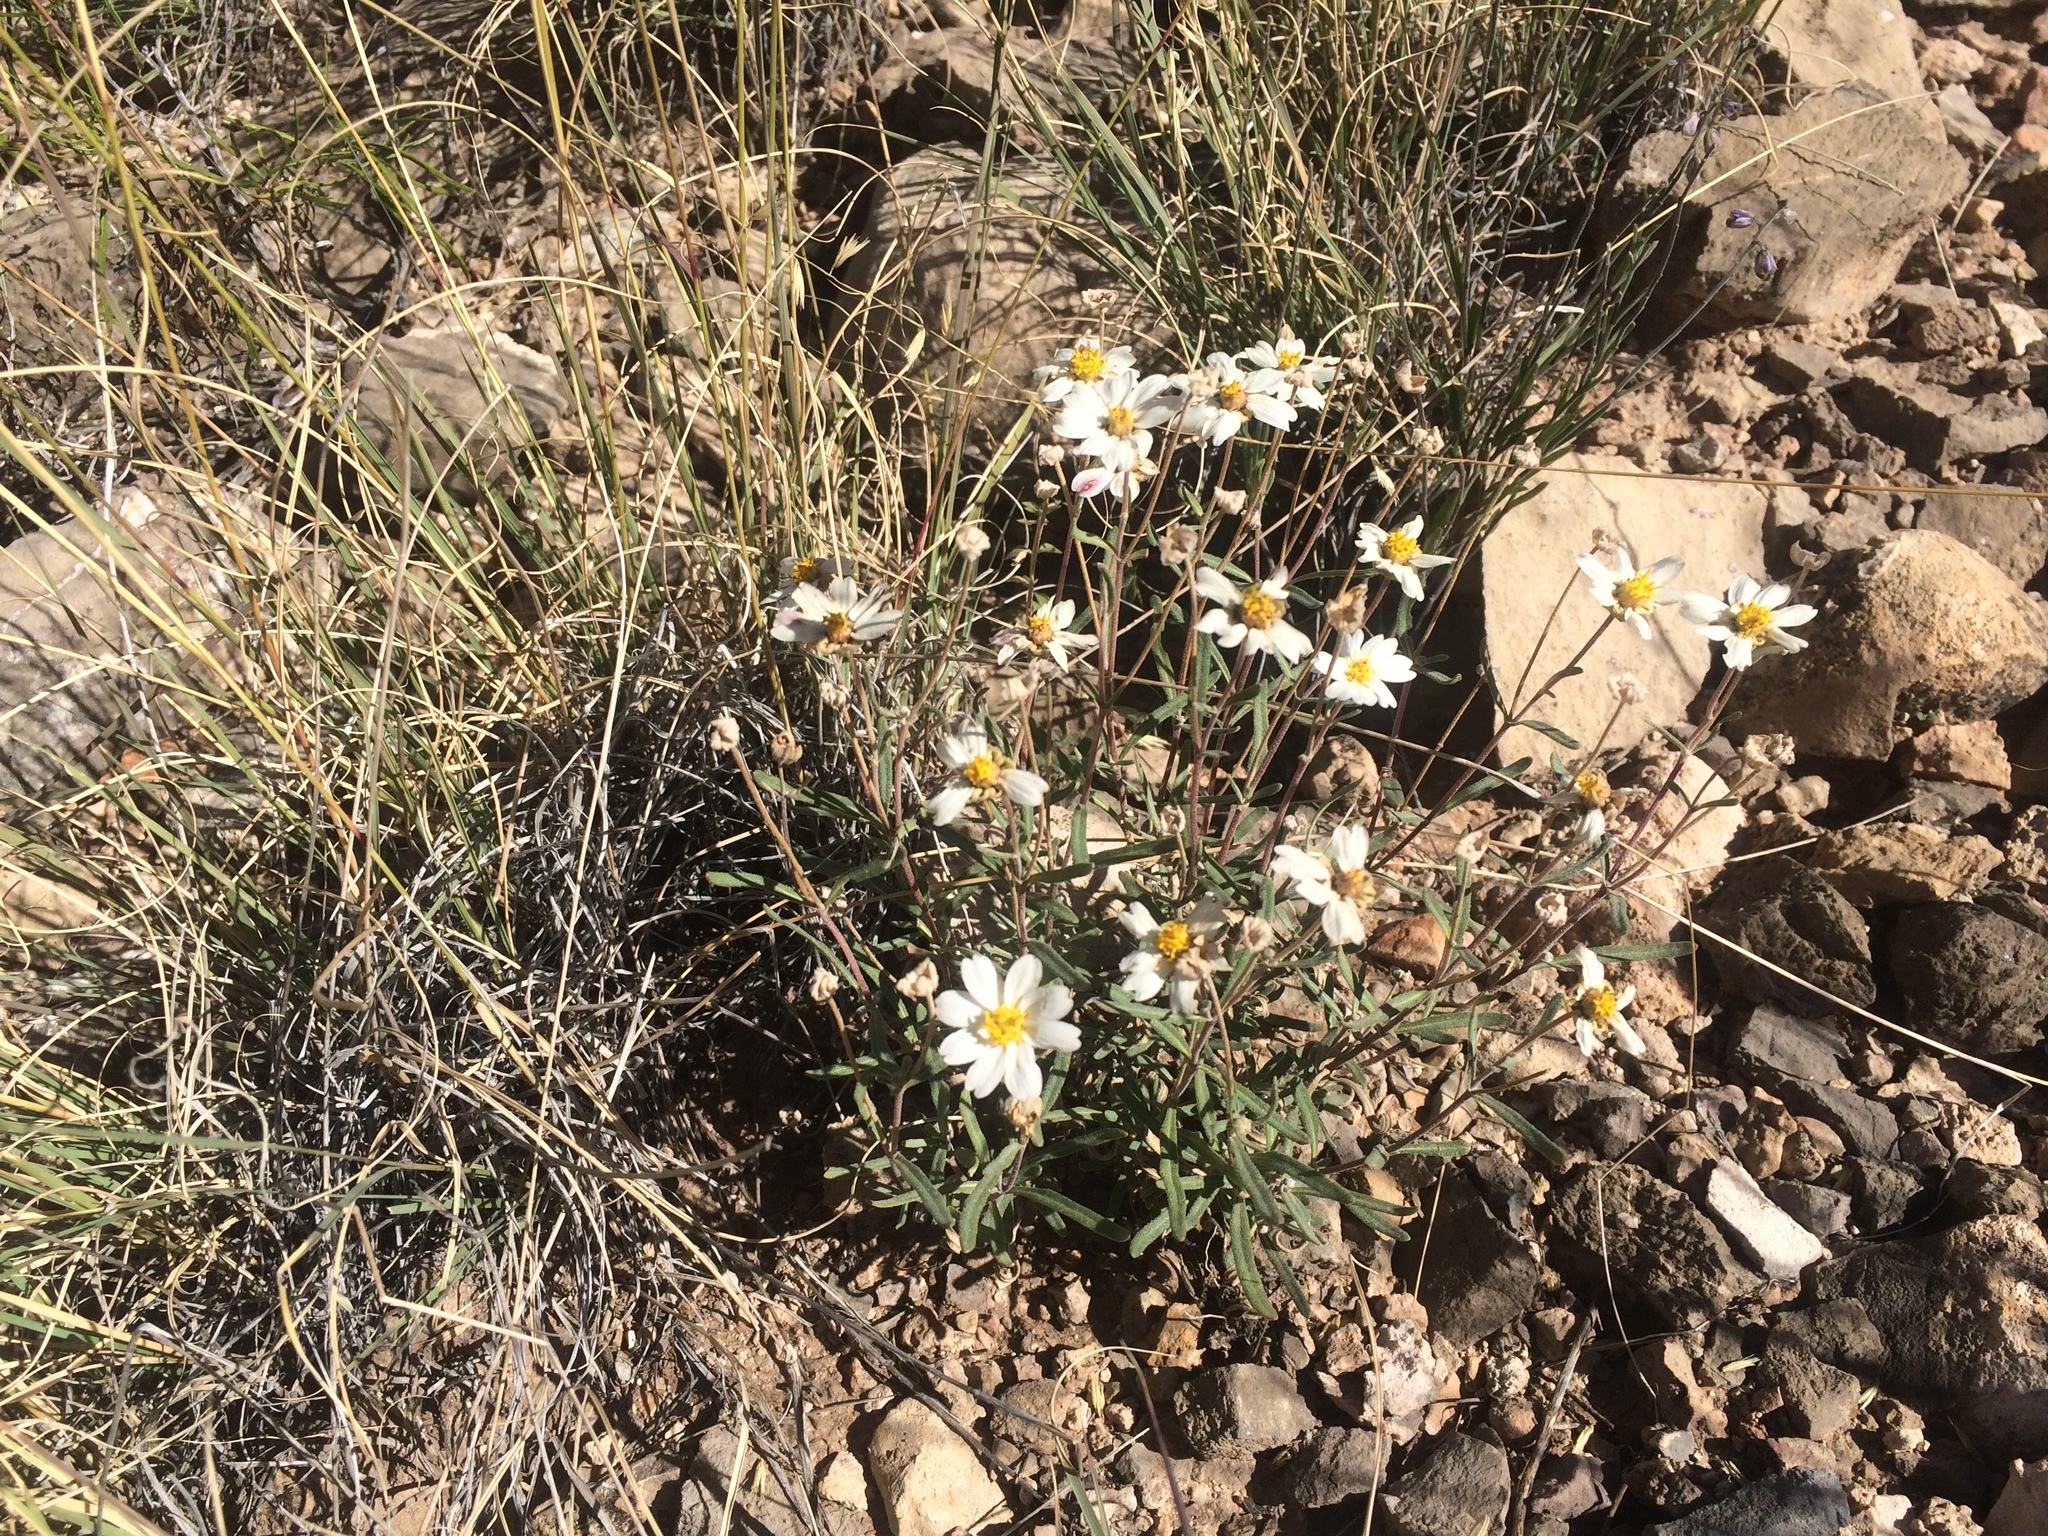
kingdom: Plantae
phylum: Tracheophyta
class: Magnoliopsida
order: Asterales
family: Asteraceae
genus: Melampodium
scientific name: Melampodium leucanthum
